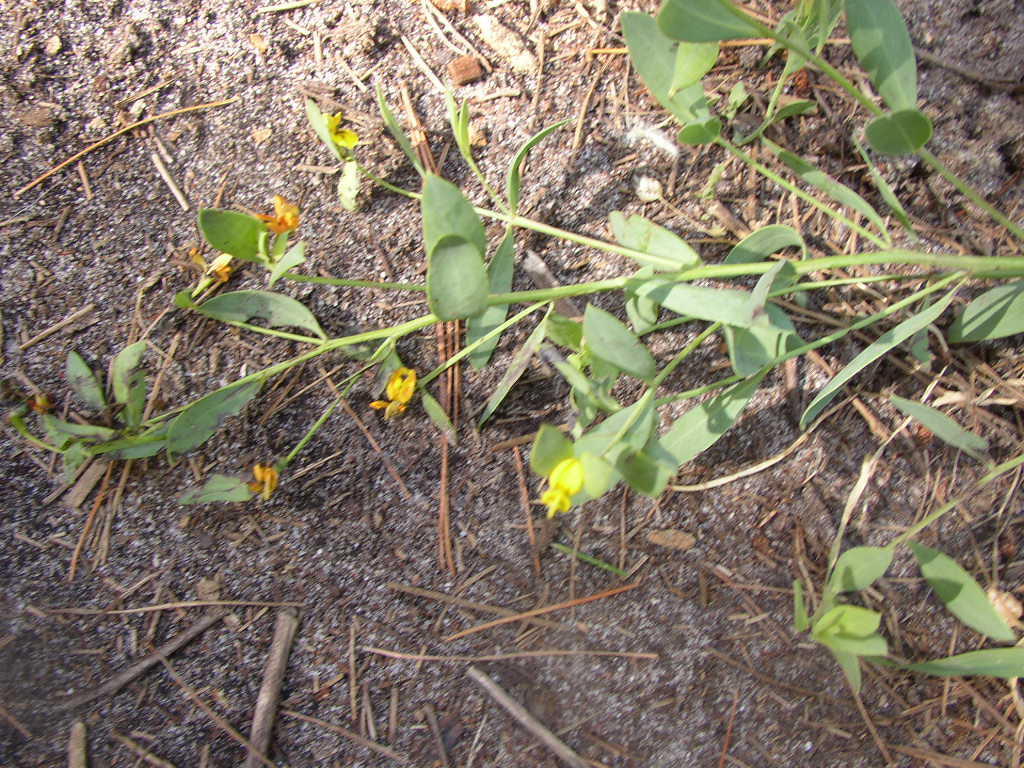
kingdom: Plantae
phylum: Tracheophyta
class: Magnoliopsida
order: Fabales
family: Fabaceae
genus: Rafnia
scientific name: Rafnia angulata
